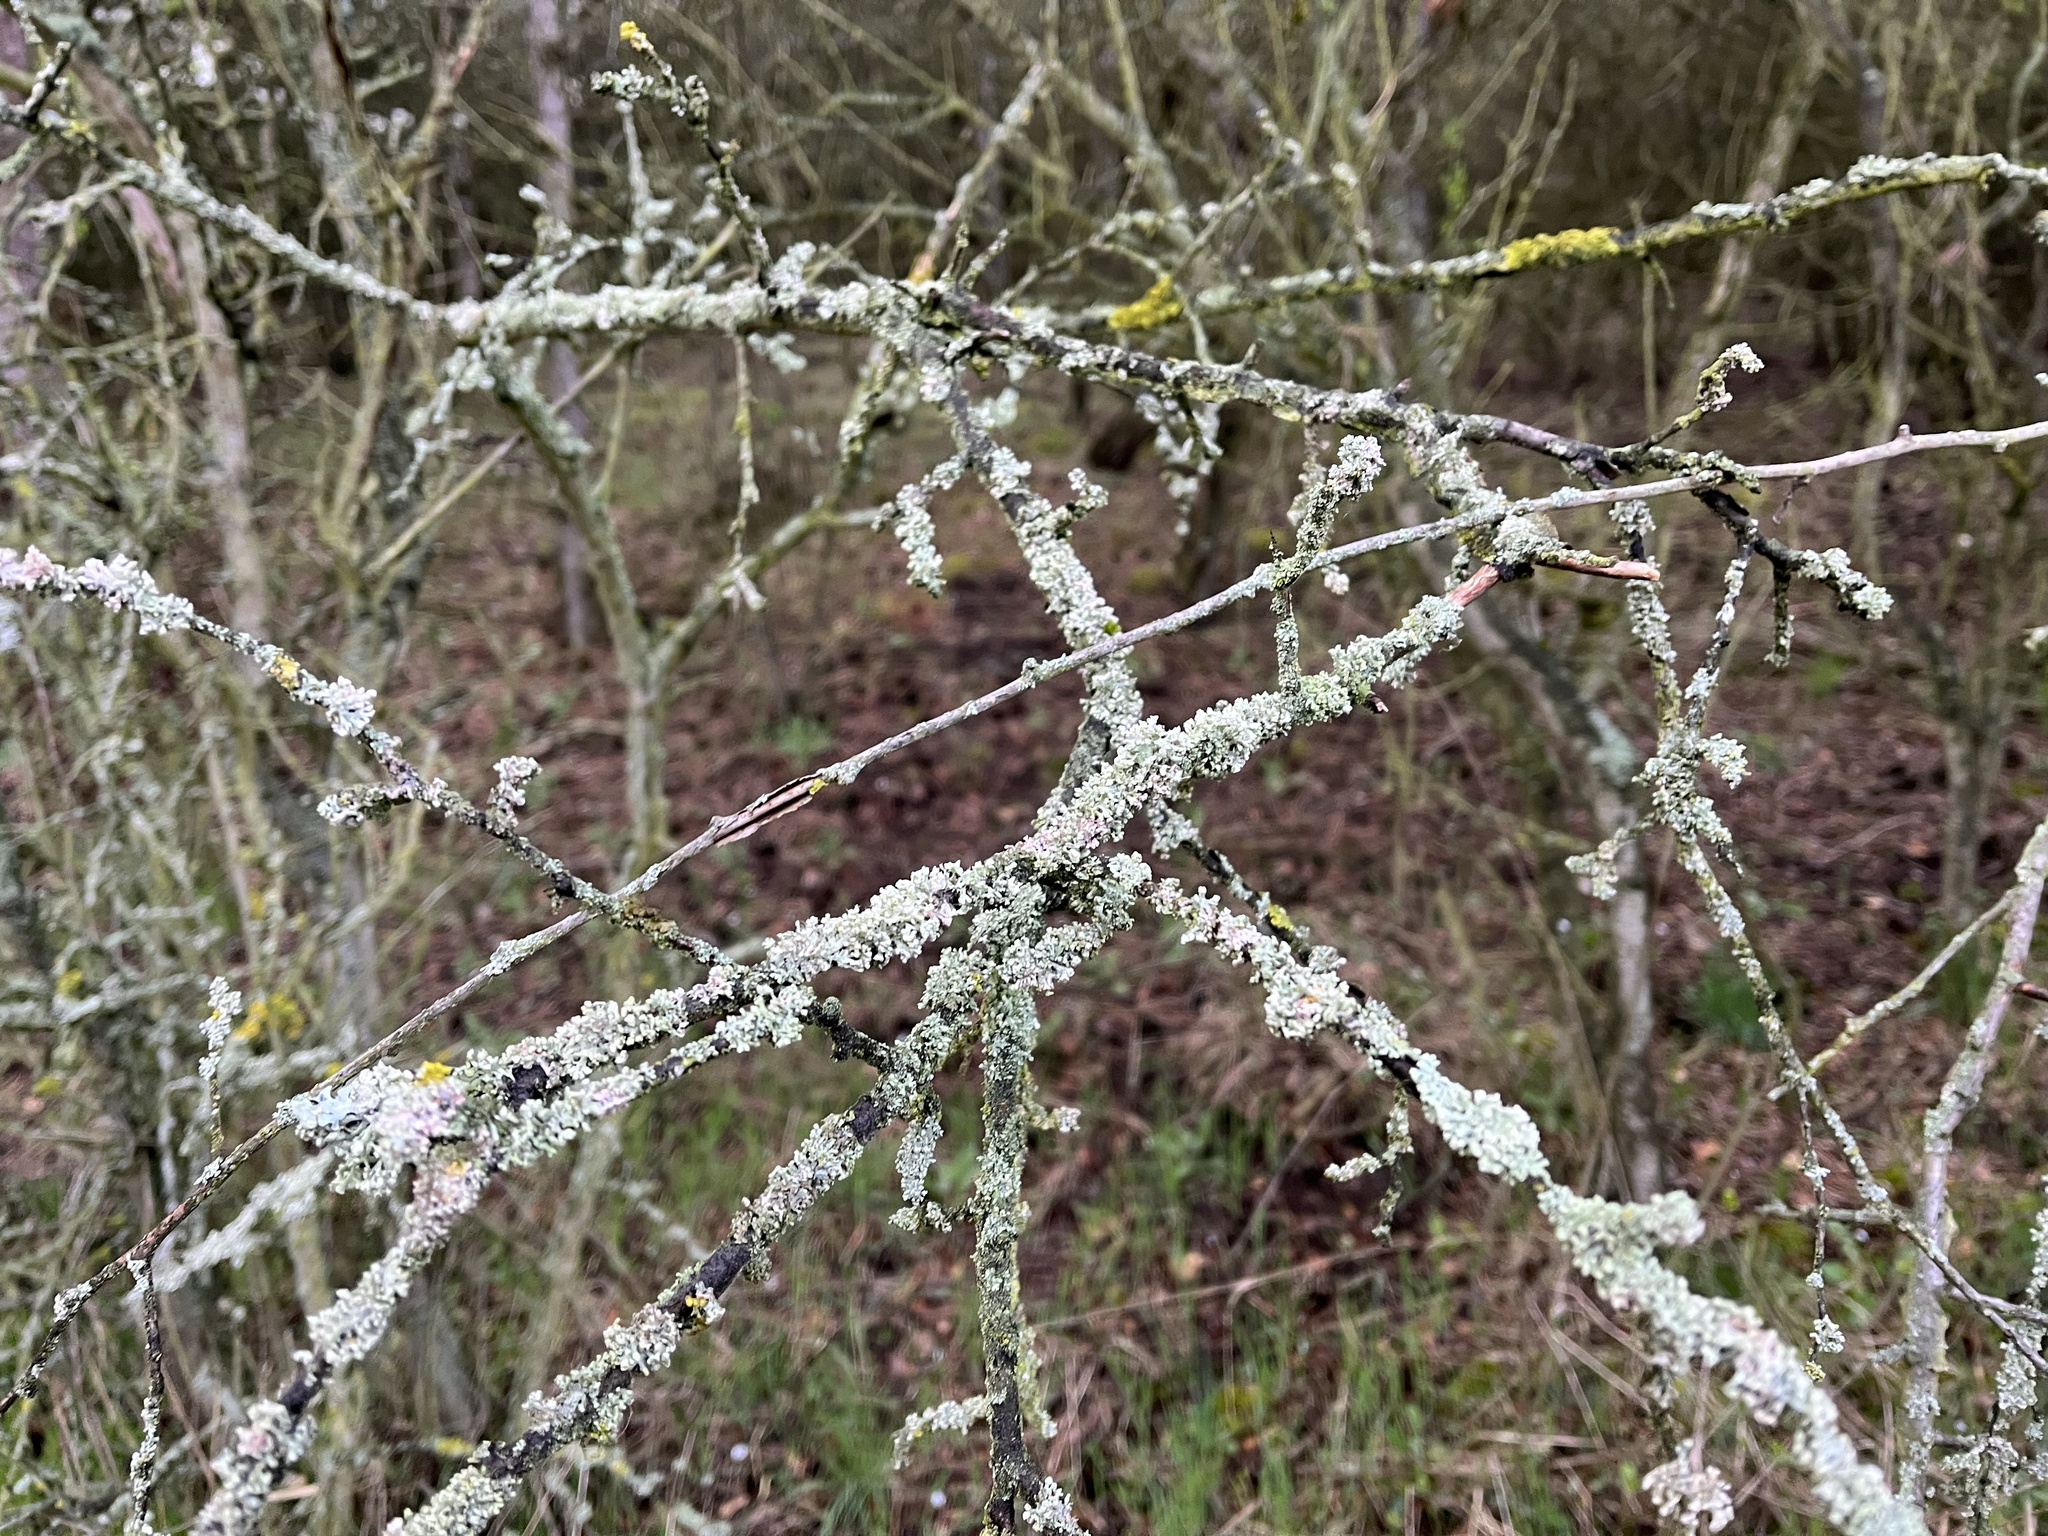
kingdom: Fungi
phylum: Ascomycota
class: Lecanoromycetes
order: Caliciales
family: Physciaceae
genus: Physcia
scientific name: Physcia adscendens
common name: Hooded rosette lichen
